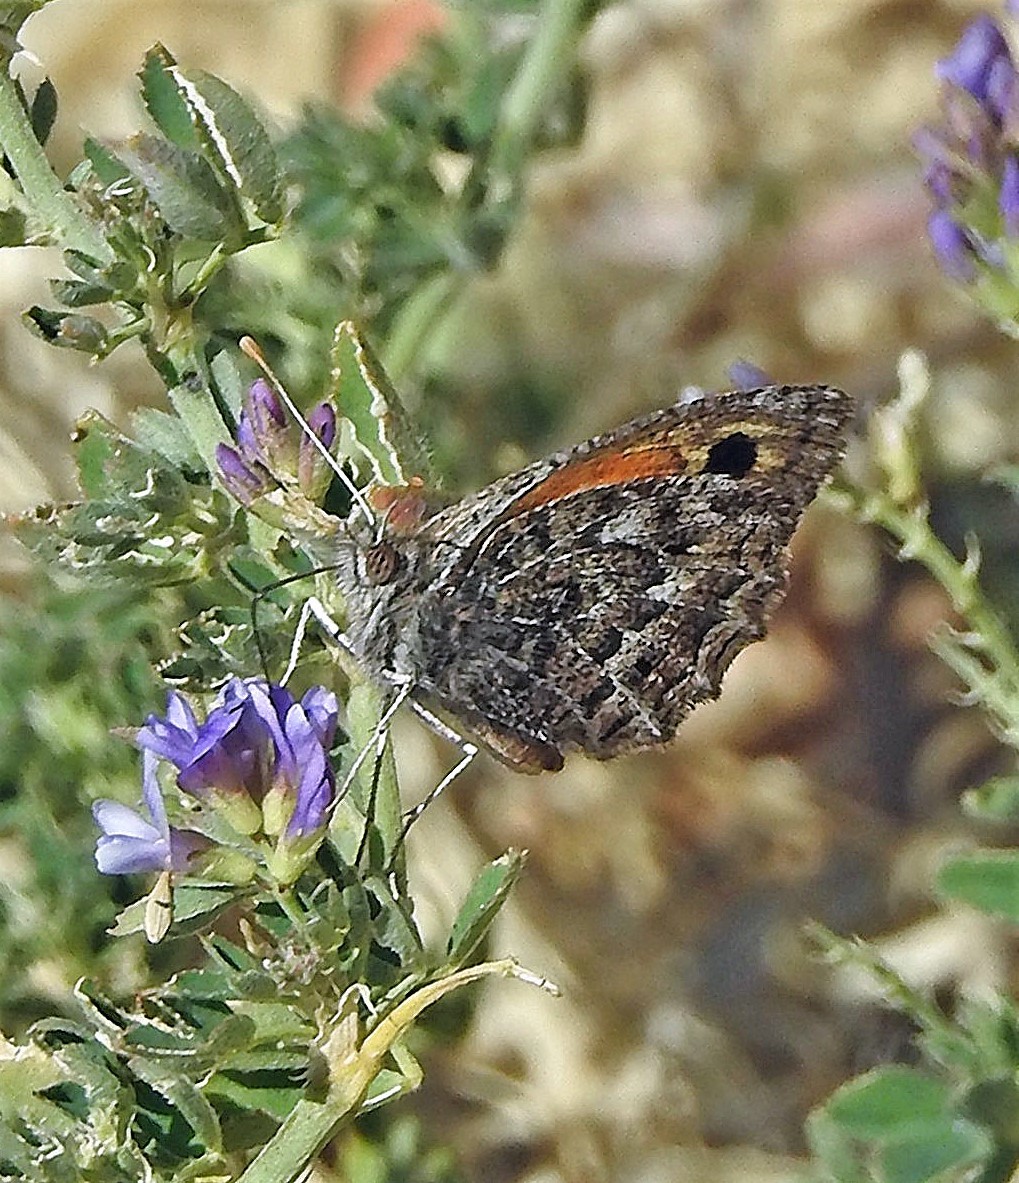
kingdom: Animalia
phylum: Arthropoda
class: Insecta
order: Lepidoptera
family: Nymphalidae
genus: Argyrophorus
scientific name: Argyrophorus
